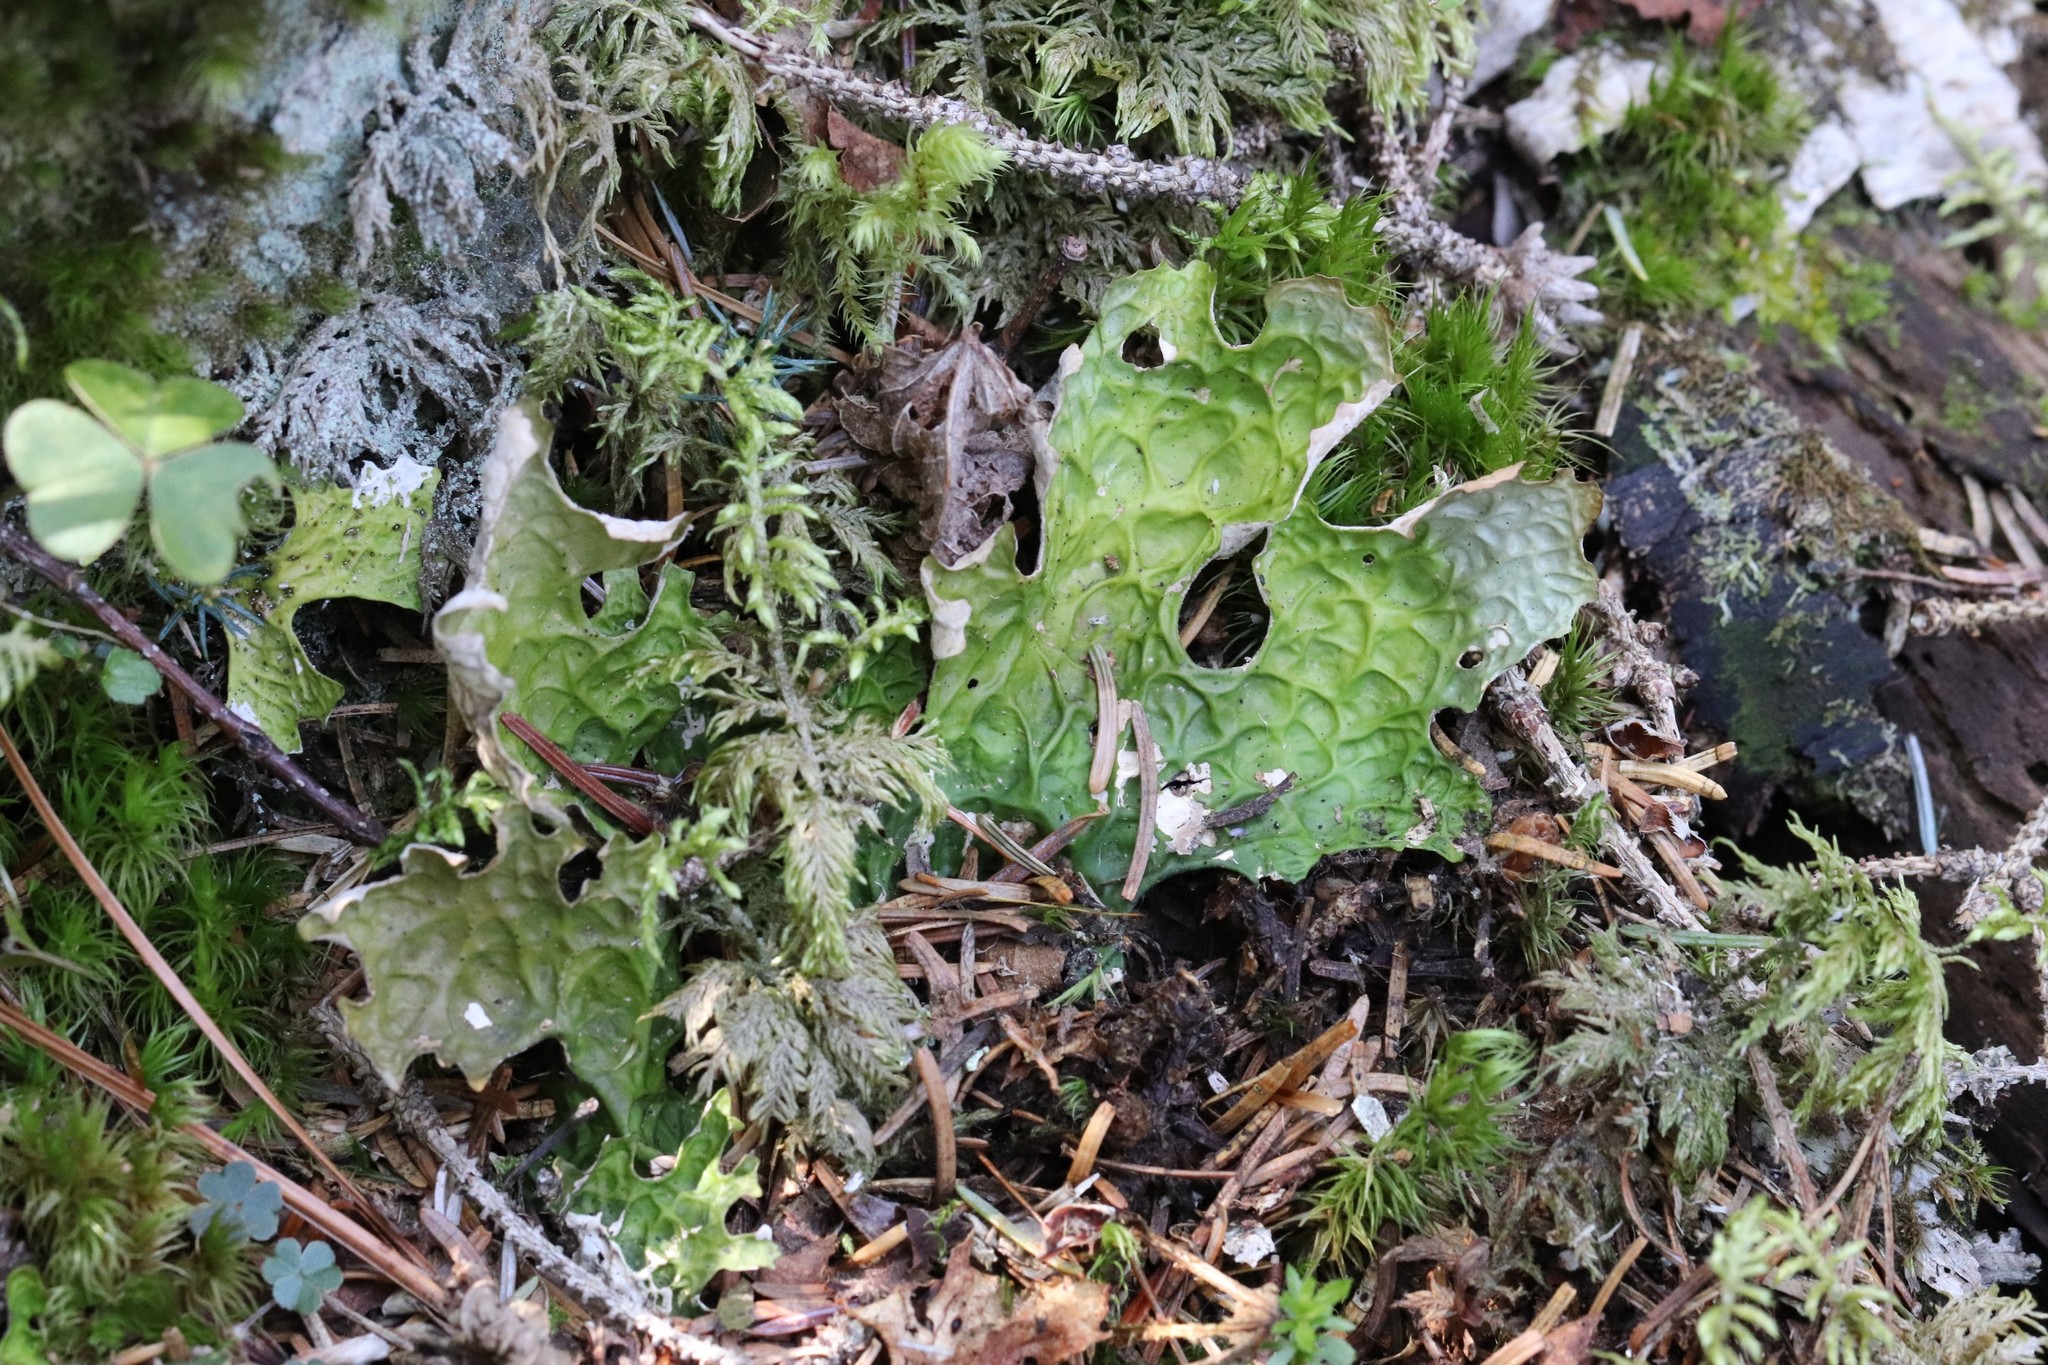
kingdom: Fungi
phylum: Ascomycota
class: Lecanoromycetes
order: Peltigerales
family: Lobariaceae
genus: Lobaria
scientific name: Lobaria pulmonaria
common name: Lungwort
